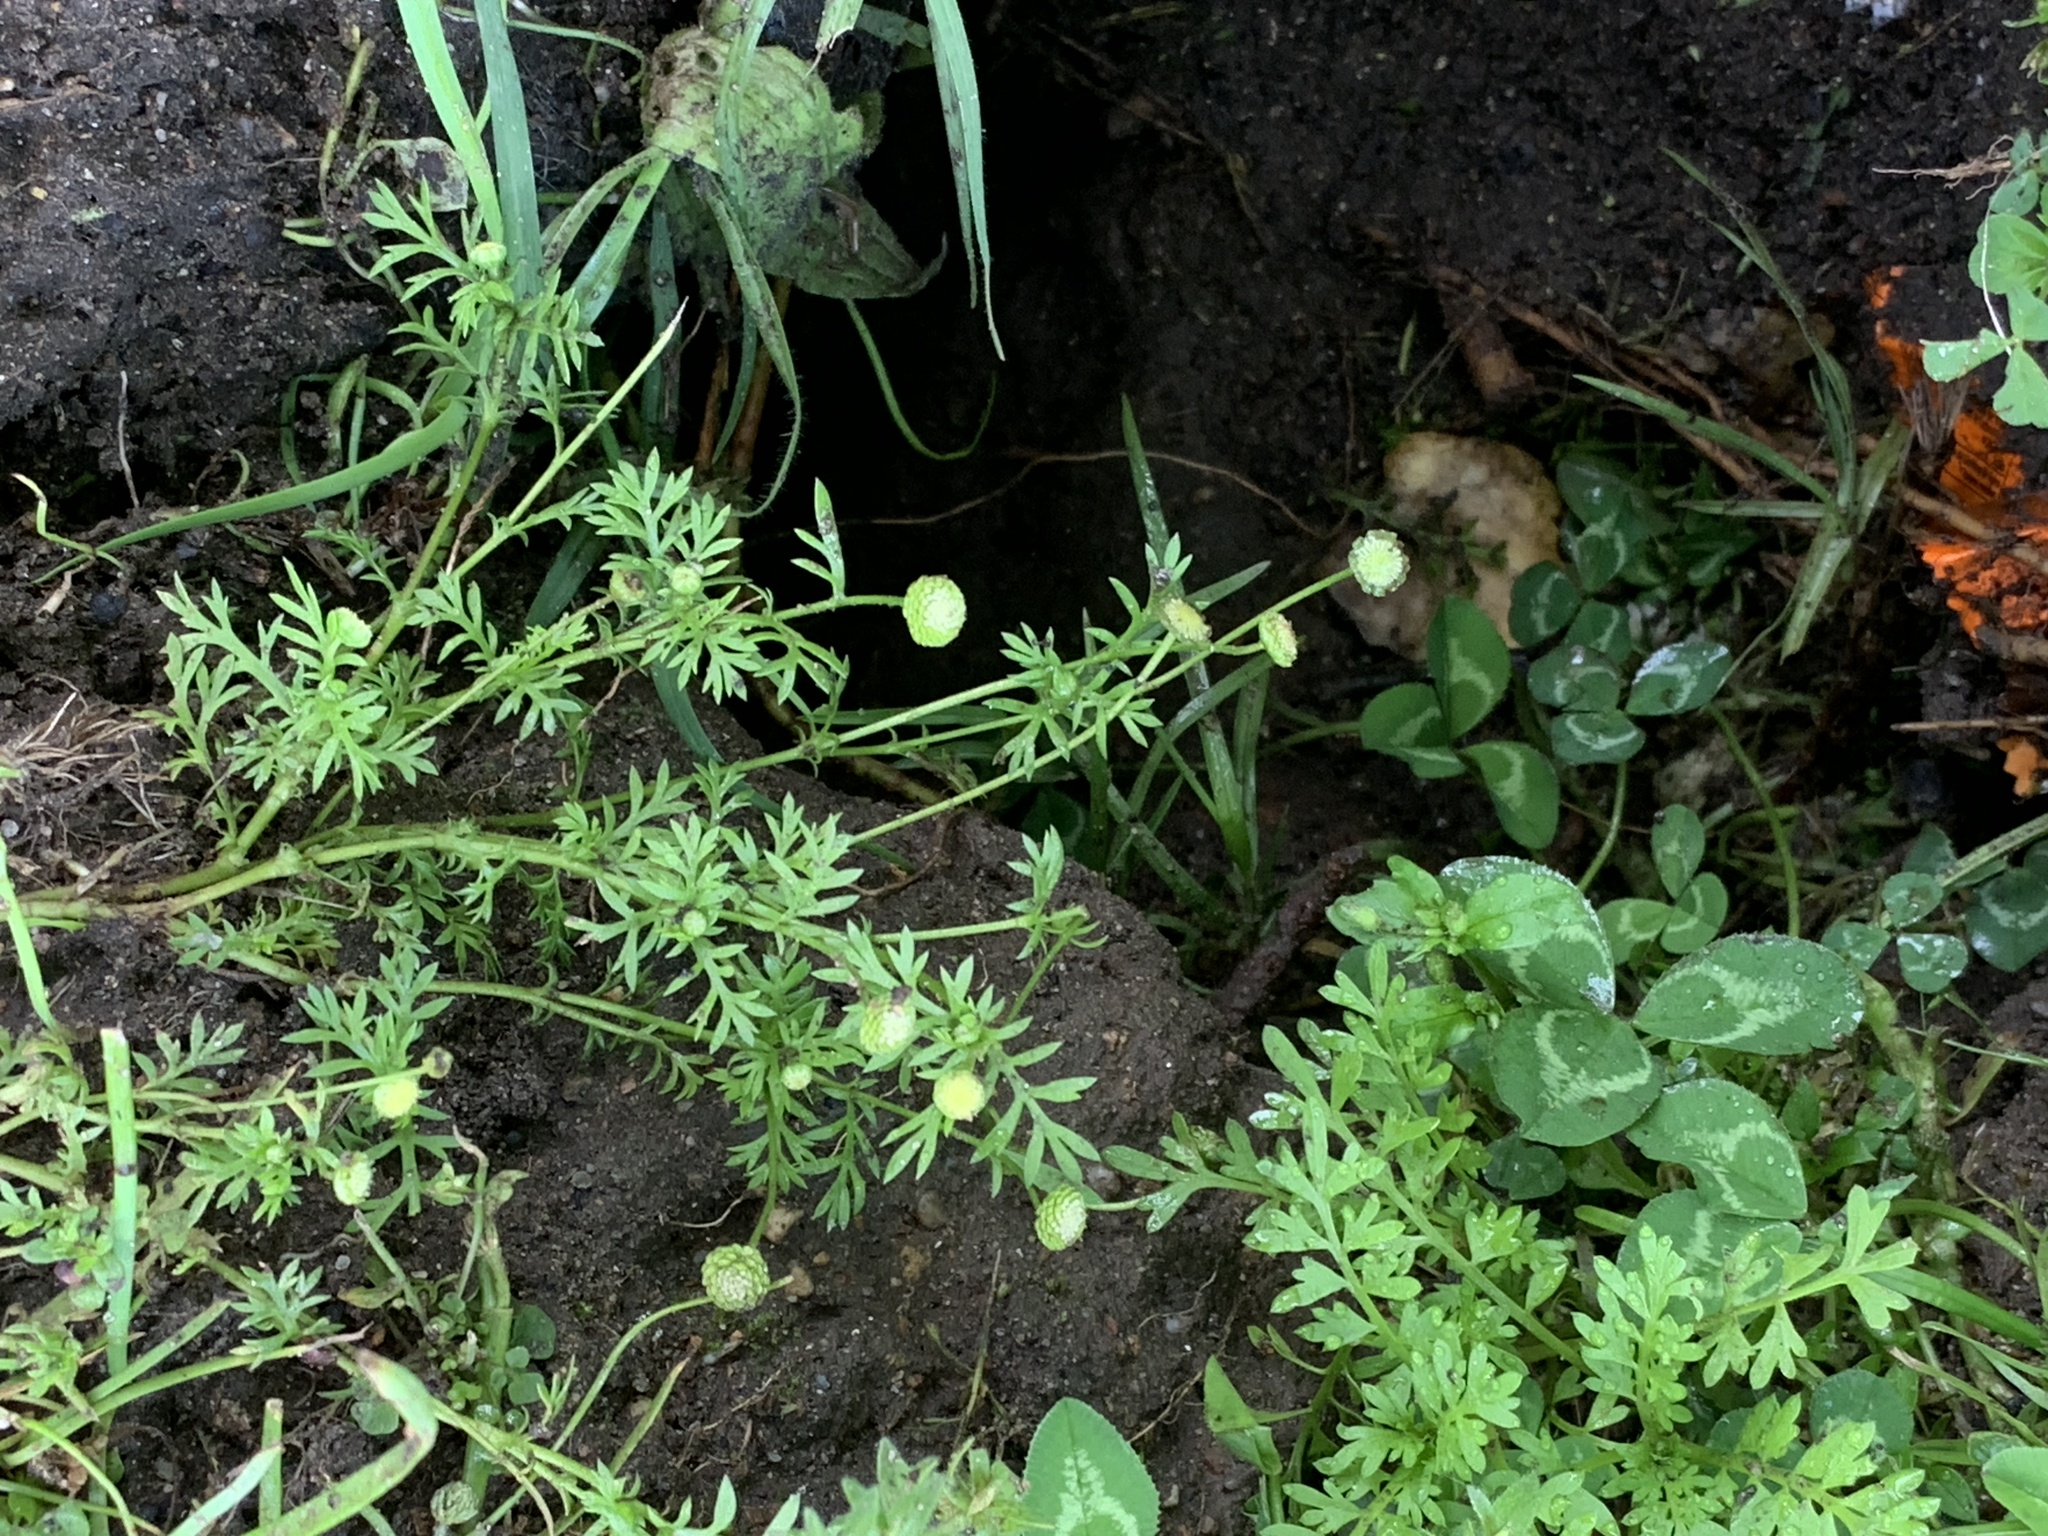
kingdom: Plantae
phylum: Tracheophyta
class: Magnoliopsida
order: Asterales
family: Asteraceae
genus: Cotula
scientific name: Cotula australis
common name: Australian waterbuttons
